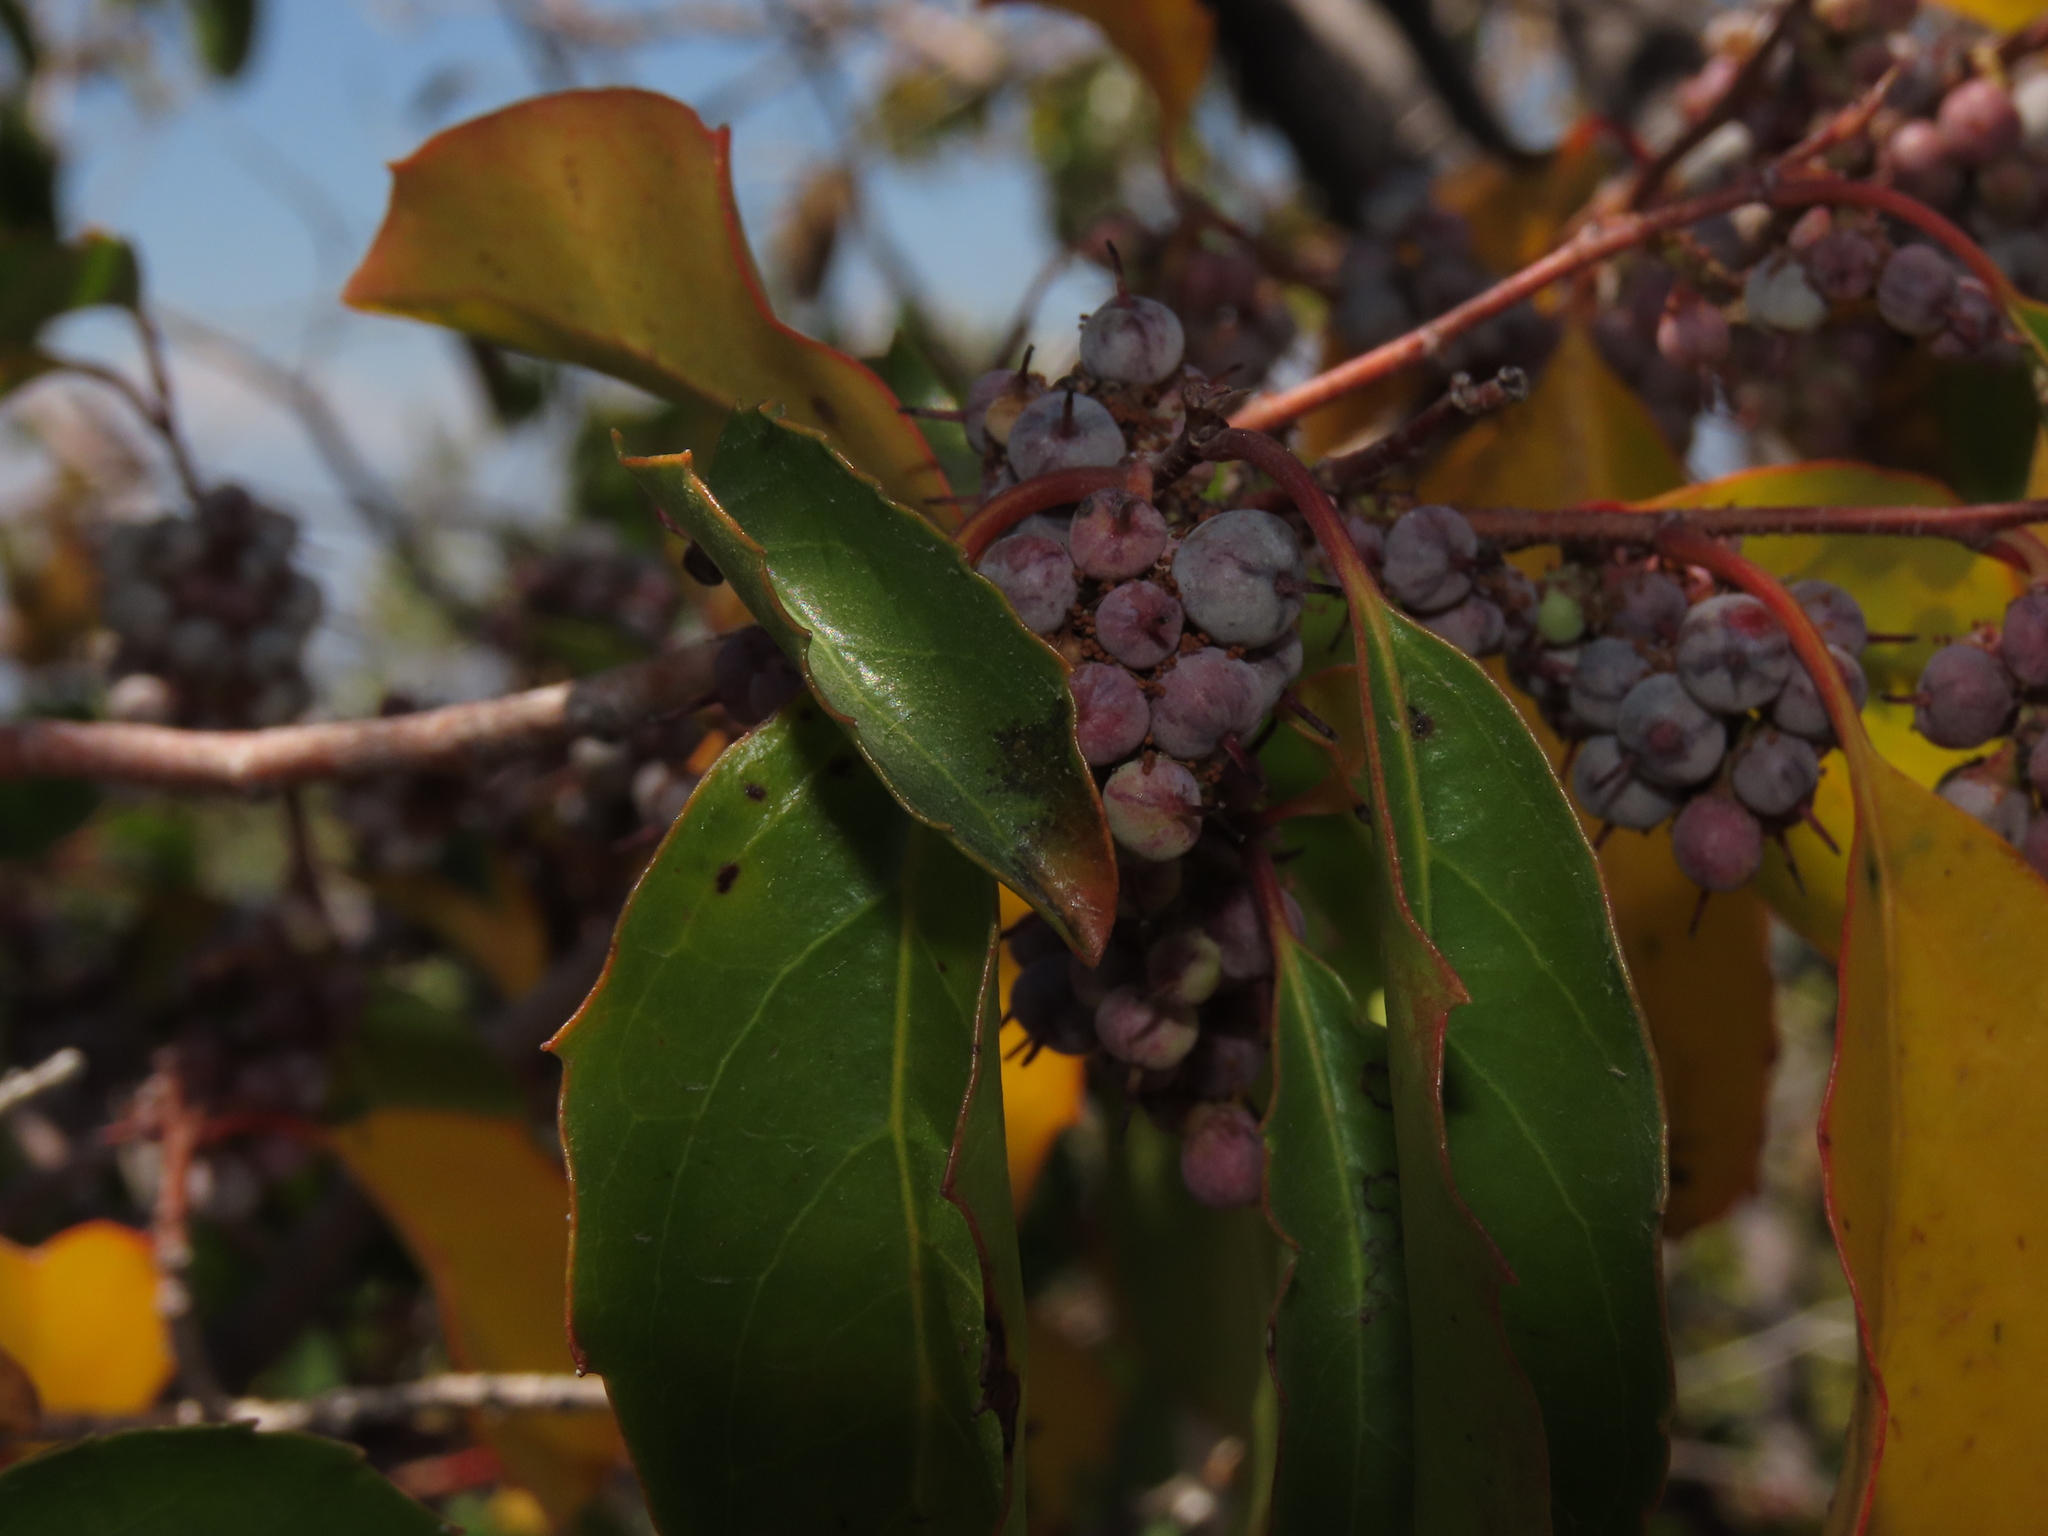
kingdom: Plantae
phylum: Tracheophyta
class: Magnoliopsida
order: Malpighiales
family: Salicaceae
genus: Azara
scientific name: Azara petiolaris
